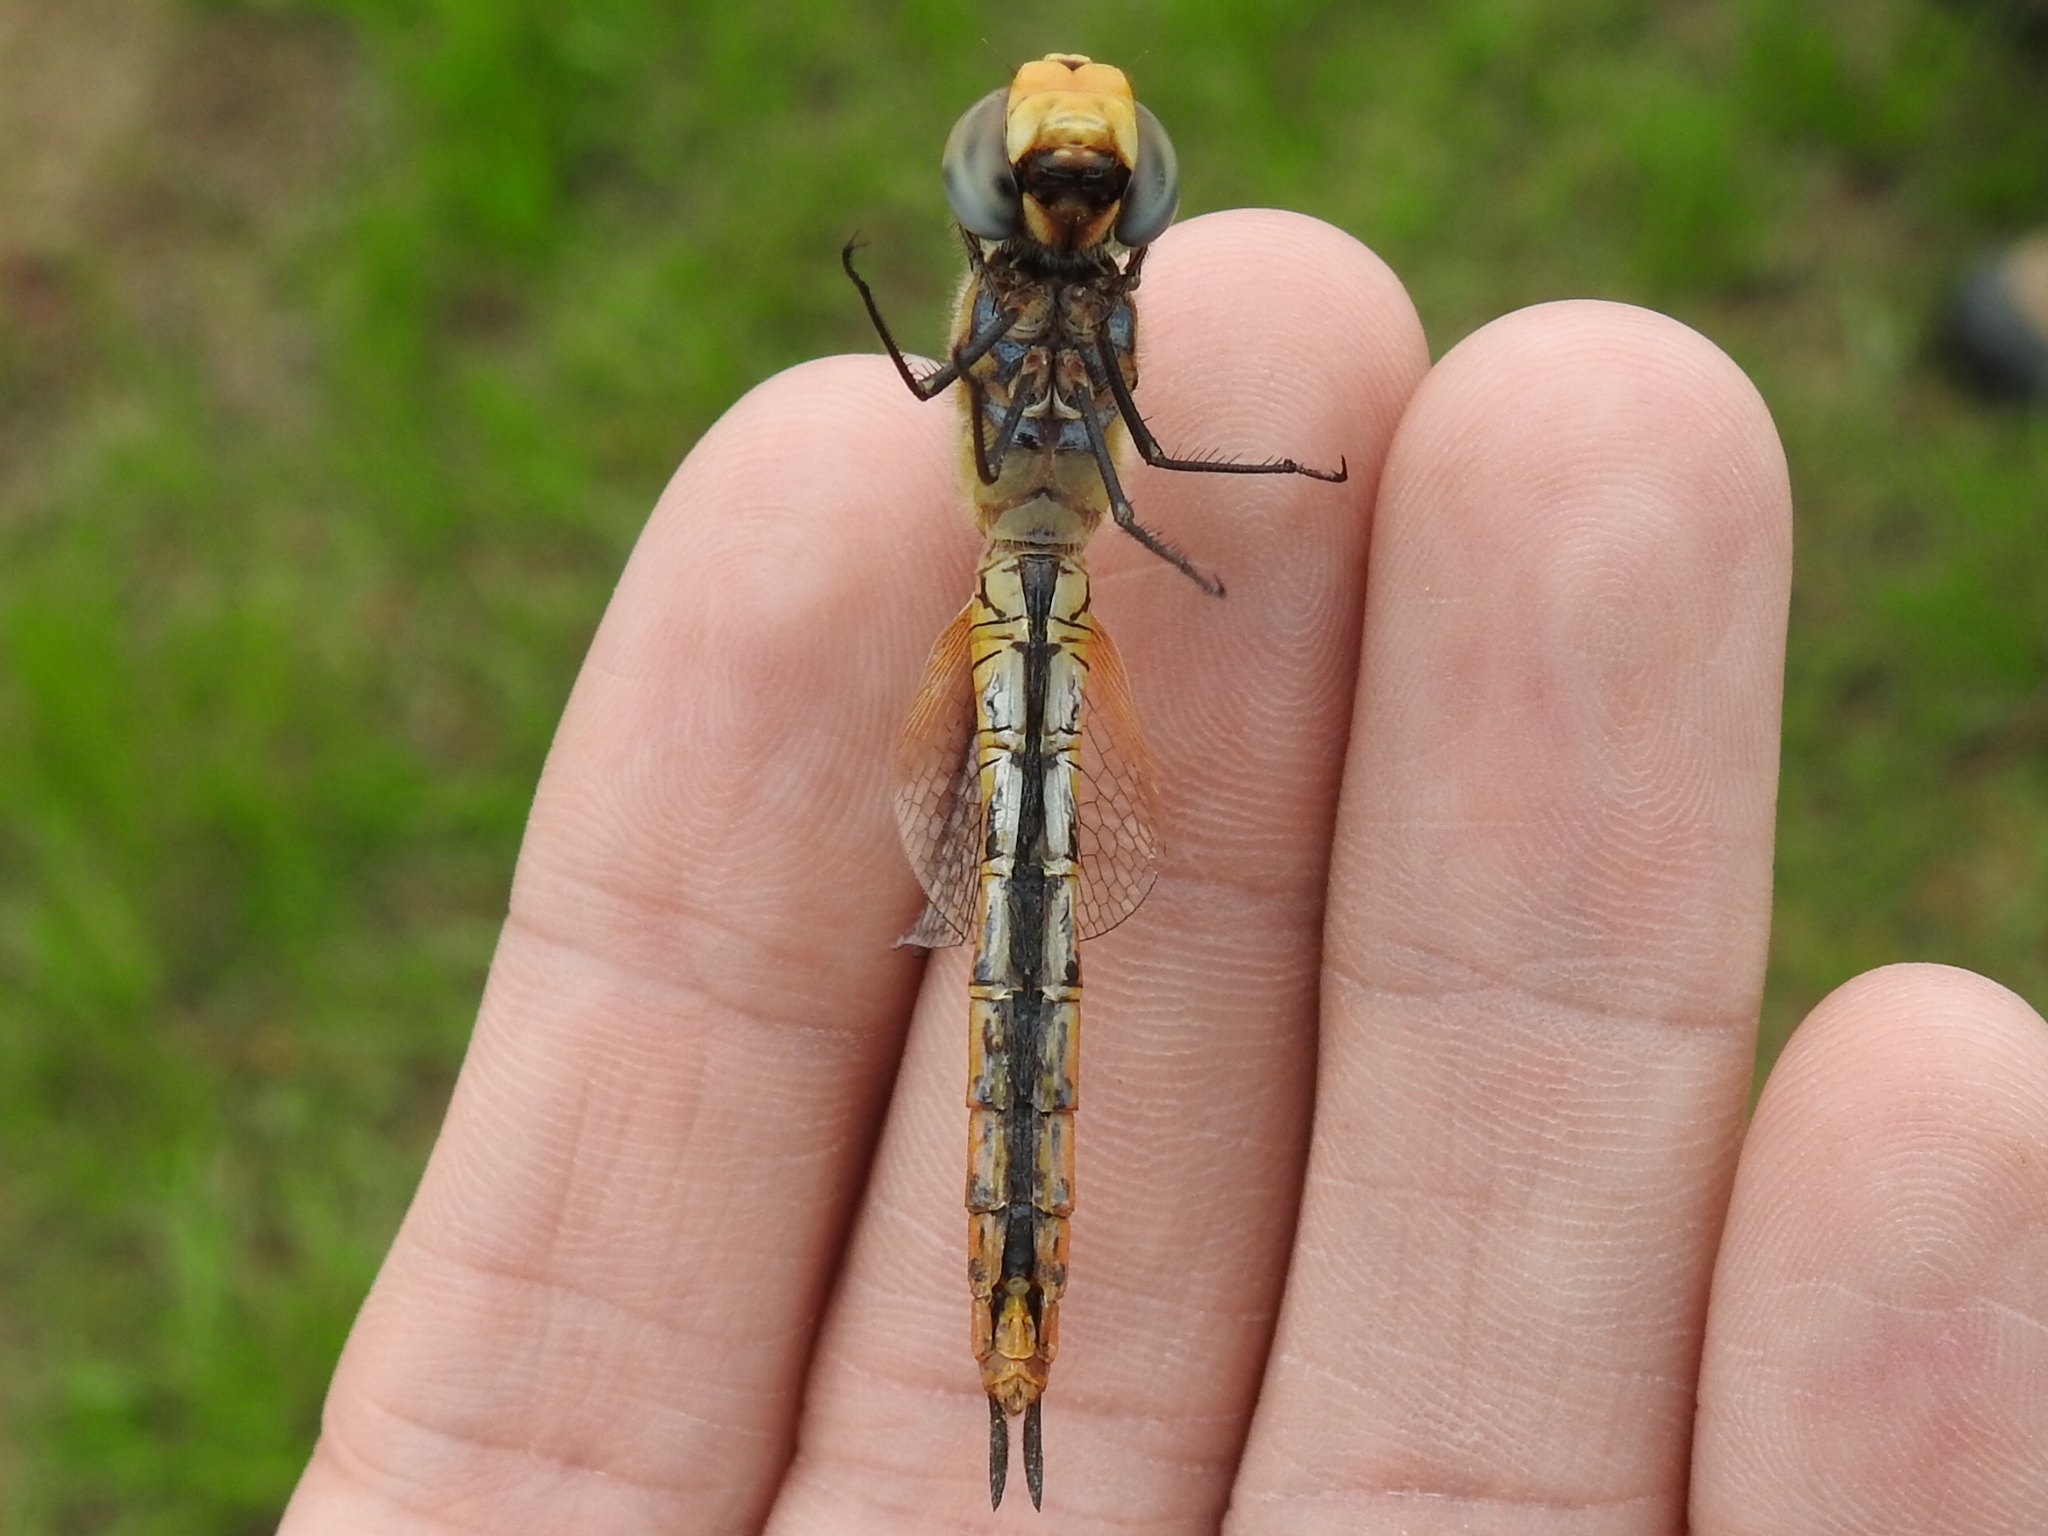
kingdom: Animalia
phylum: Arthropoda
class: Insecta
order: Odonata
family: Libellulidae
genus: Pantala
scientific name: Pantala flavescens
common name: Wandering glider
